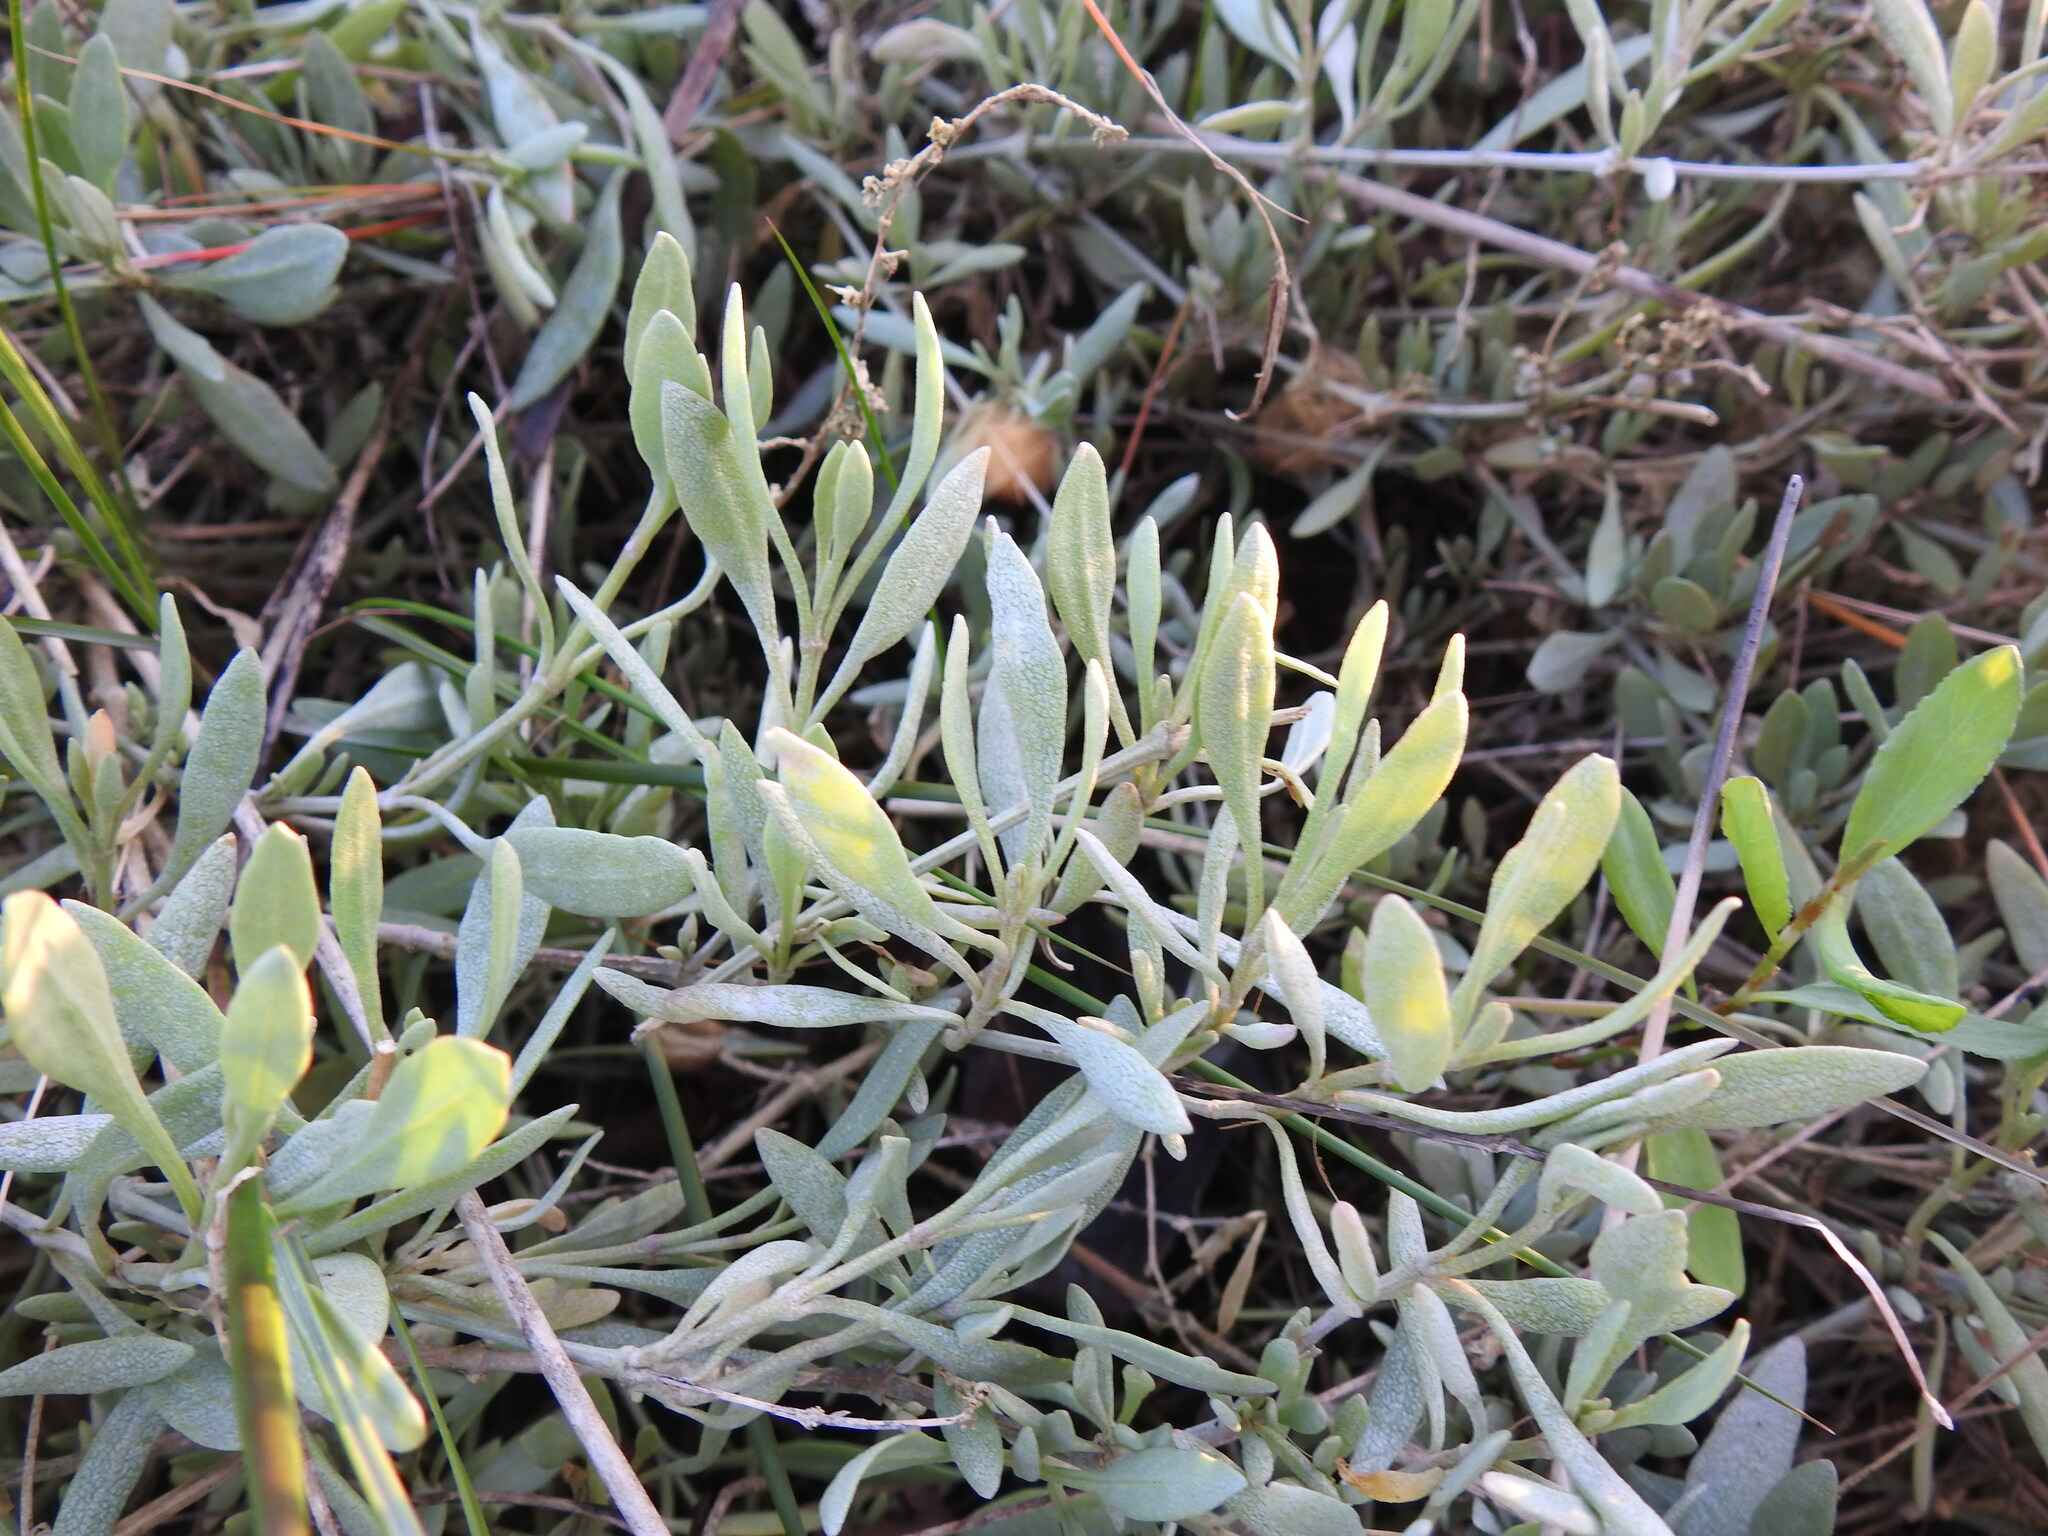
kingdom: Plantae
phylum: Tracheophyta
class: Magnoliopsida
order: Caryophyllales
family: Amaranthaceae
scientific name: Amaranthaceae
